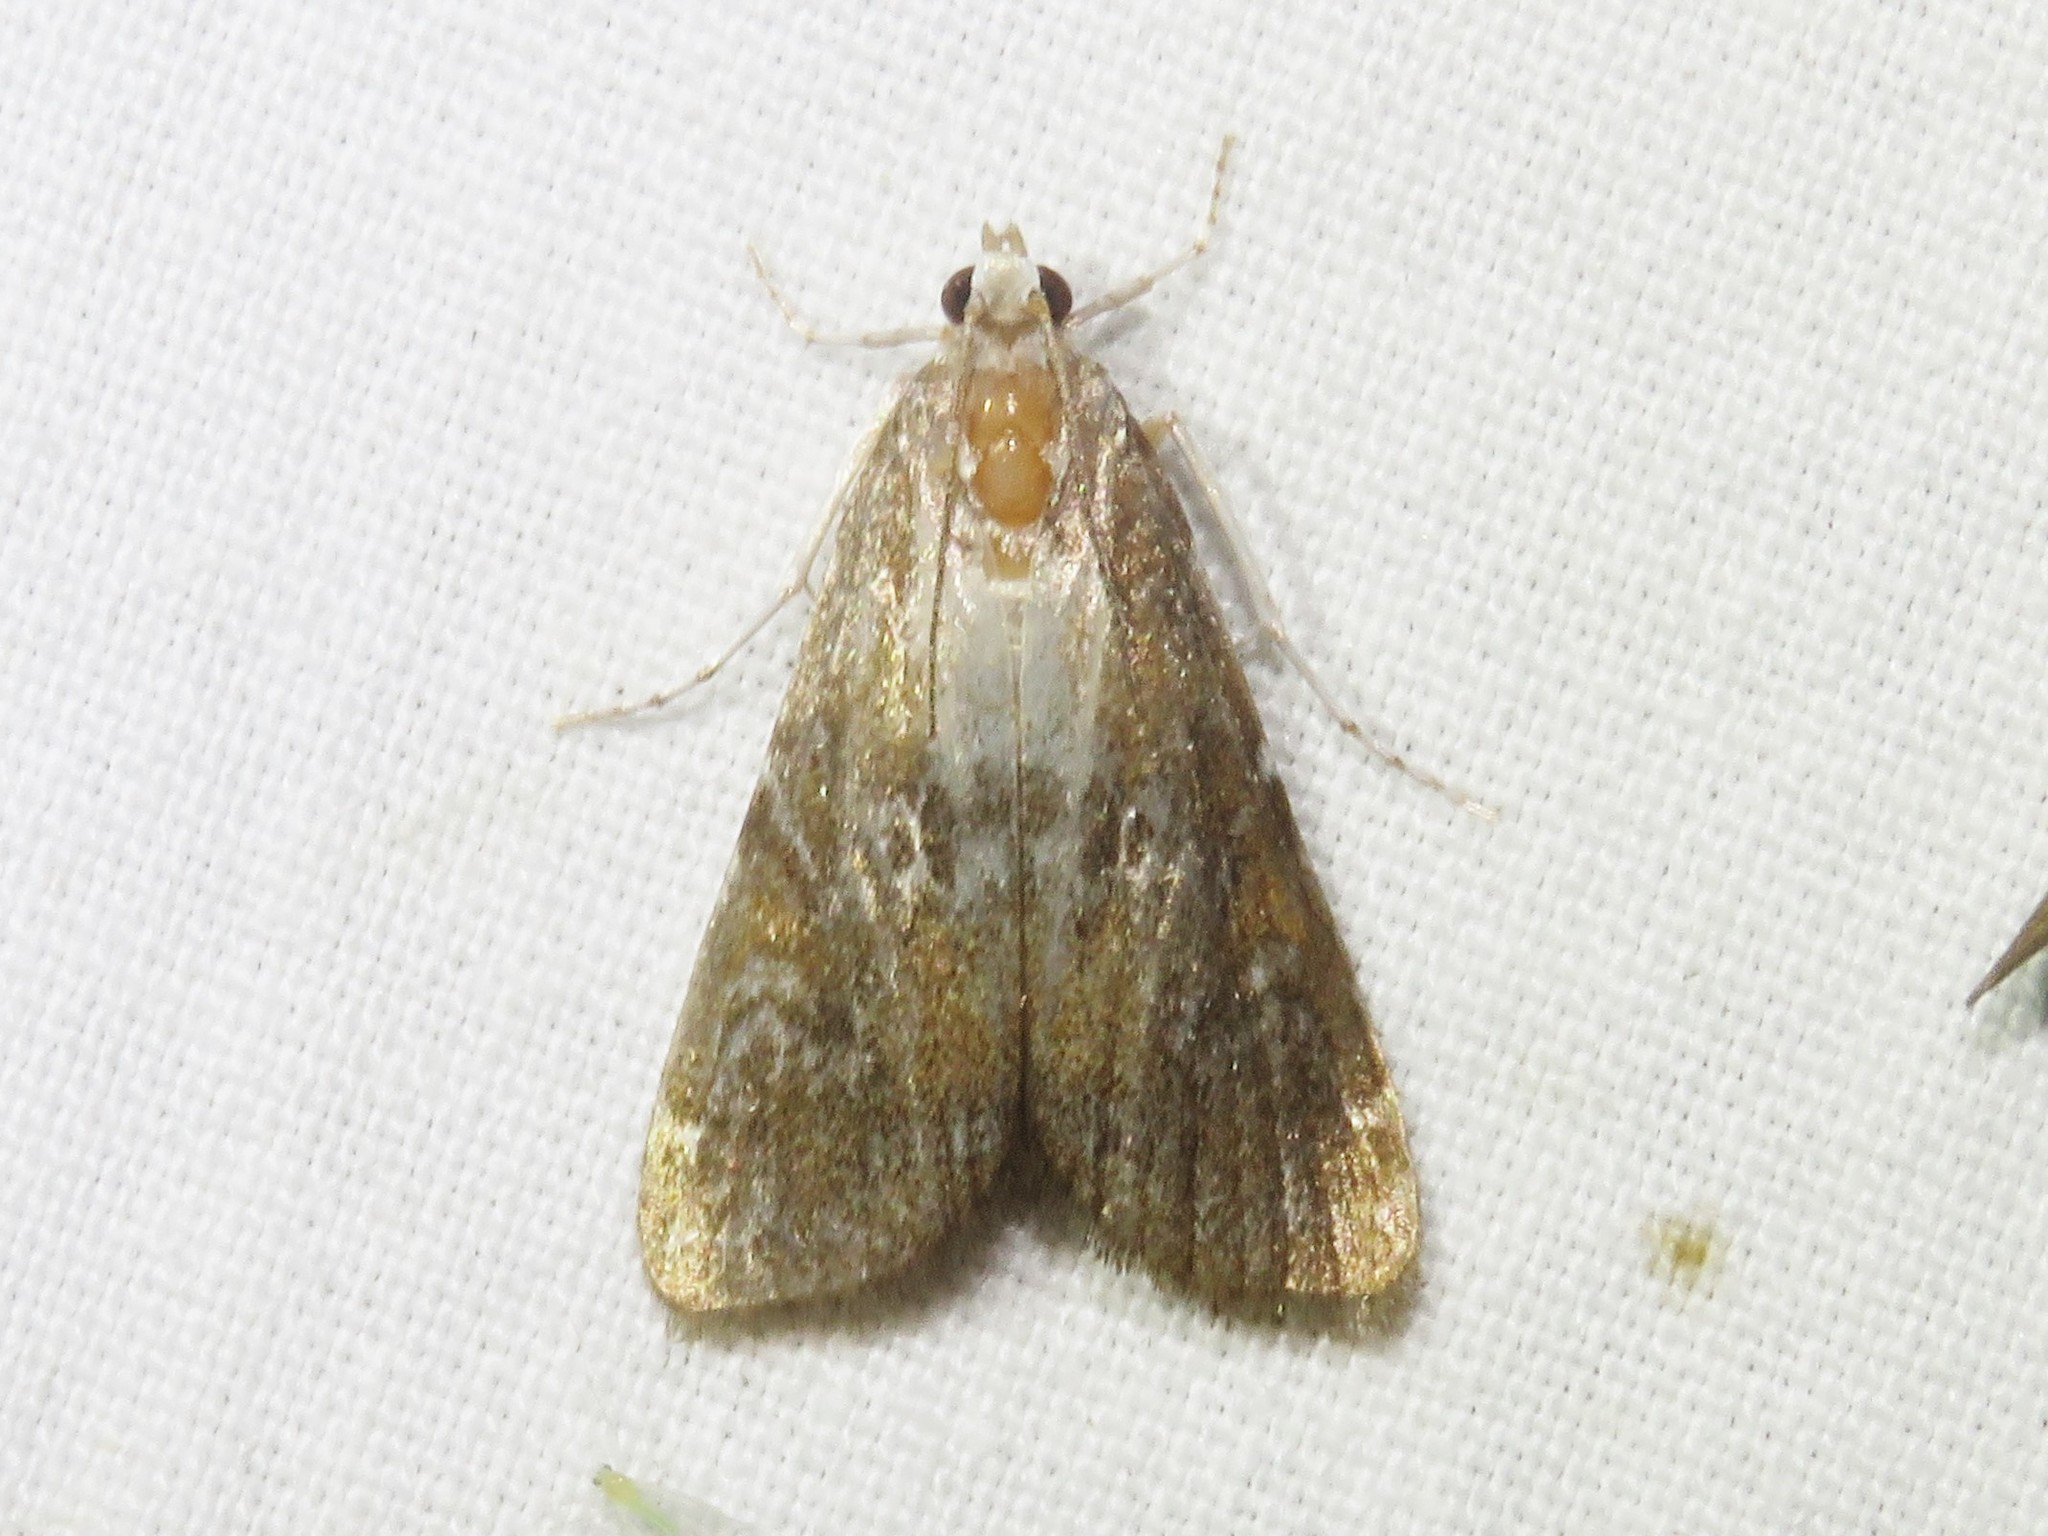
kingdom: Animalia
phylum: Arthropoda
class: Insecta
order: Lepidoptera
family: Crambidae
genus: Elophila
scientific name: Elophila gyralis
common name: Waterlily borer moth
